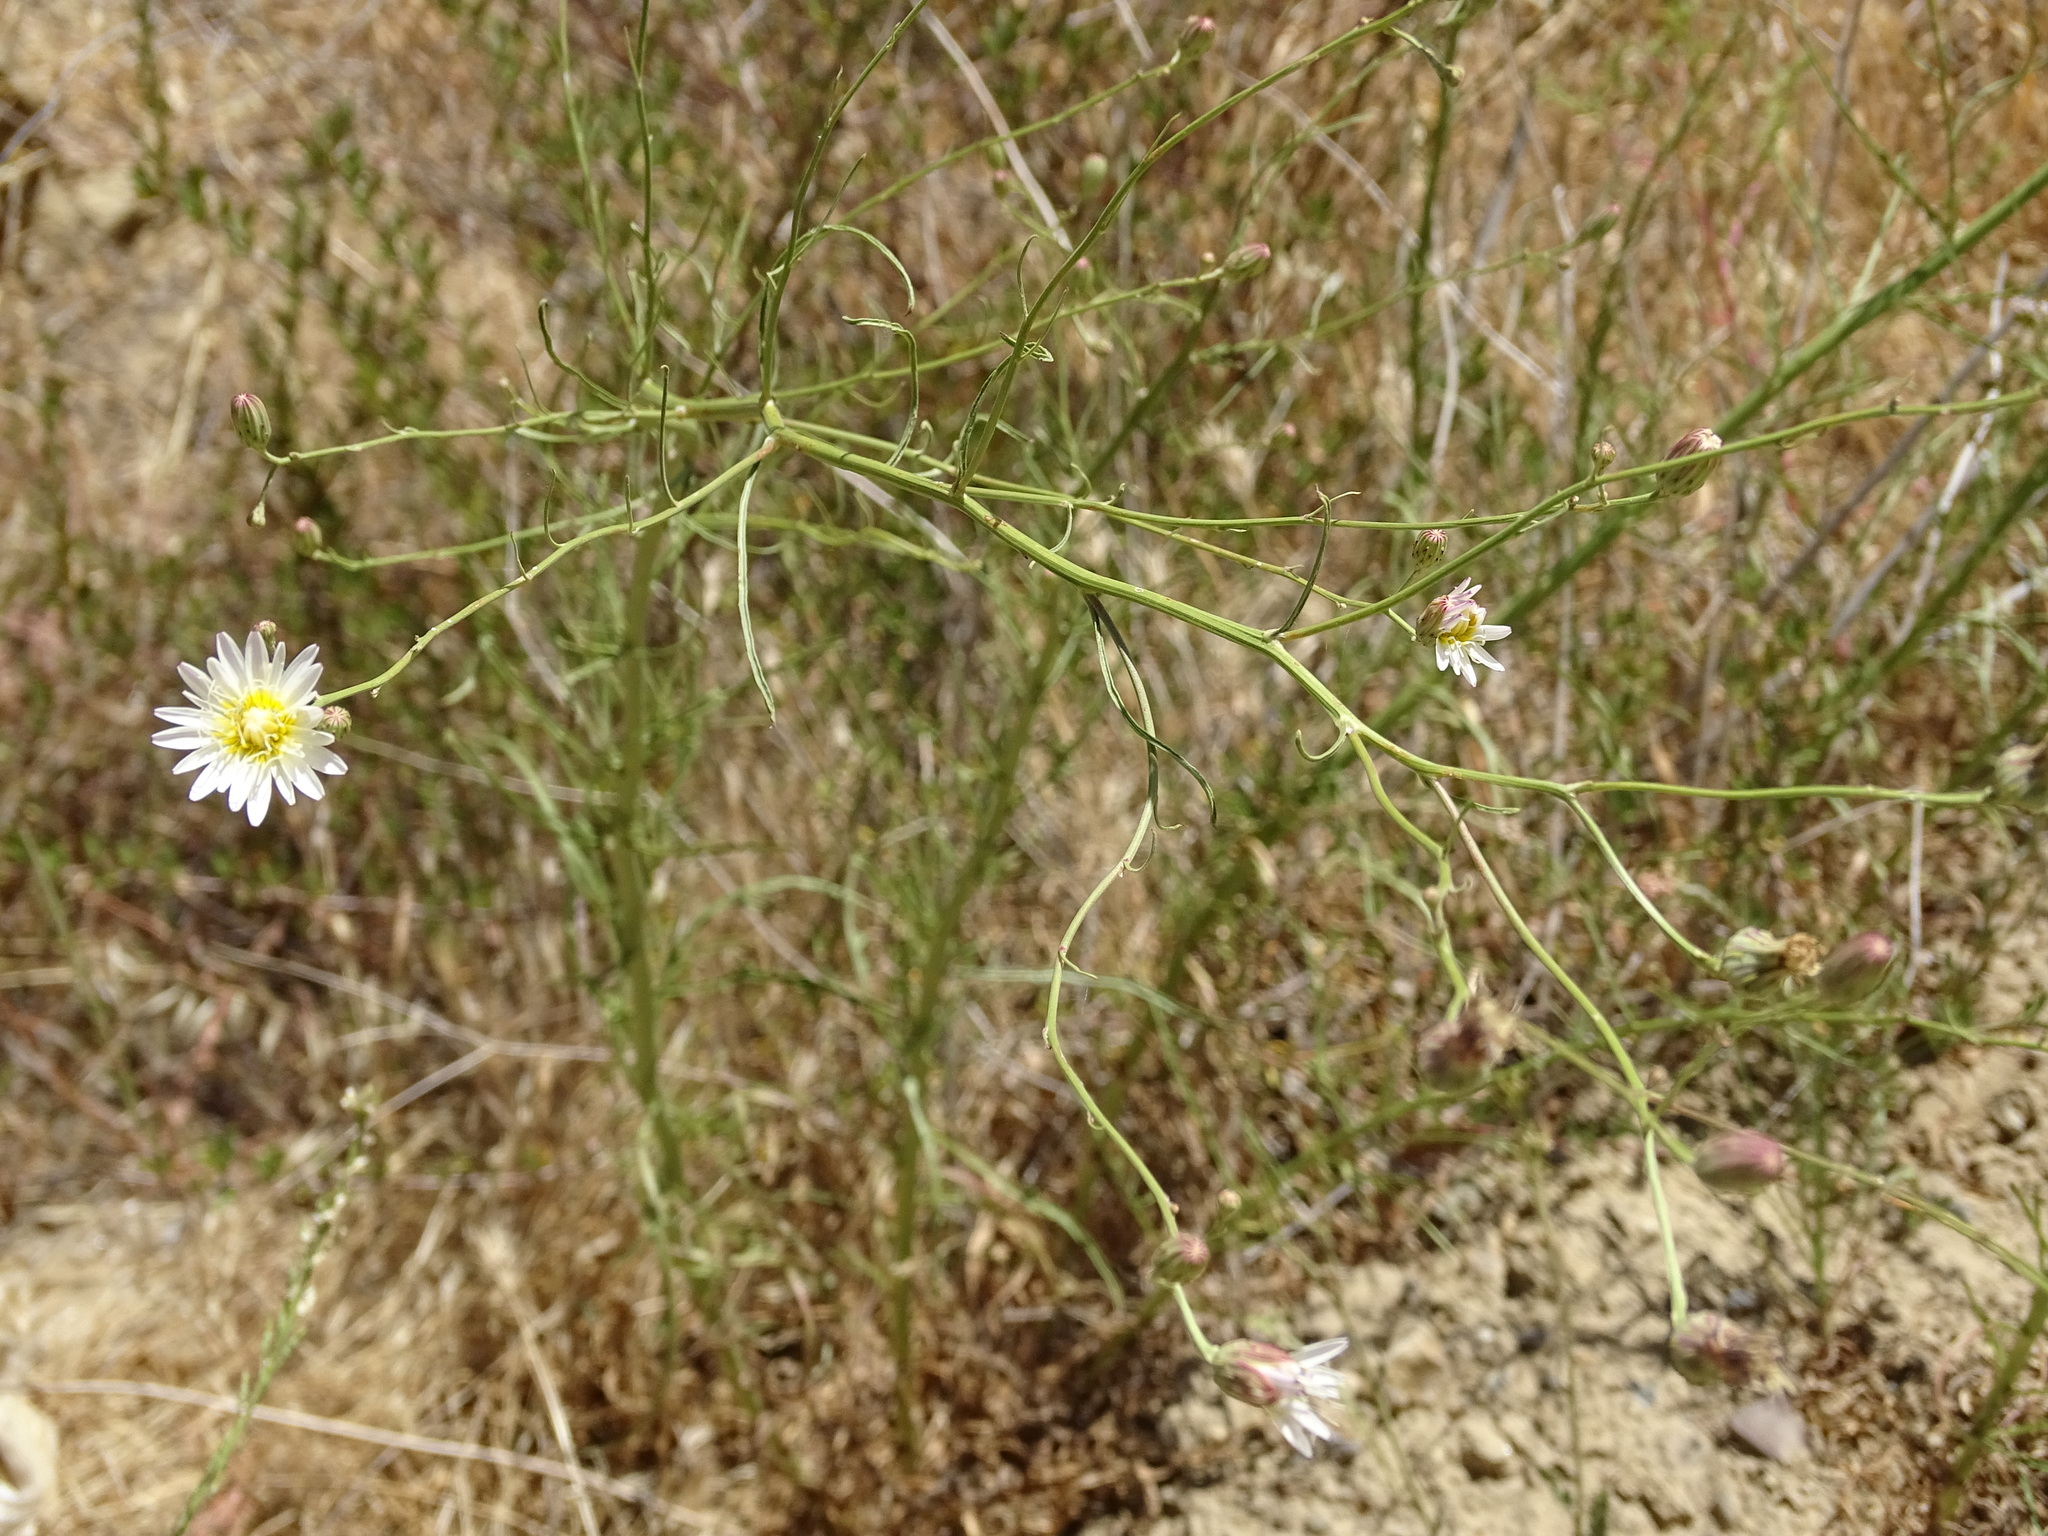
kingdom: Plantae
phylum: Tracheophyta
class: Magnoliopsida
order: Asterales
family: Asteraceae
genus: Malacothrix
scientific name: Malacothrix saxatilis
